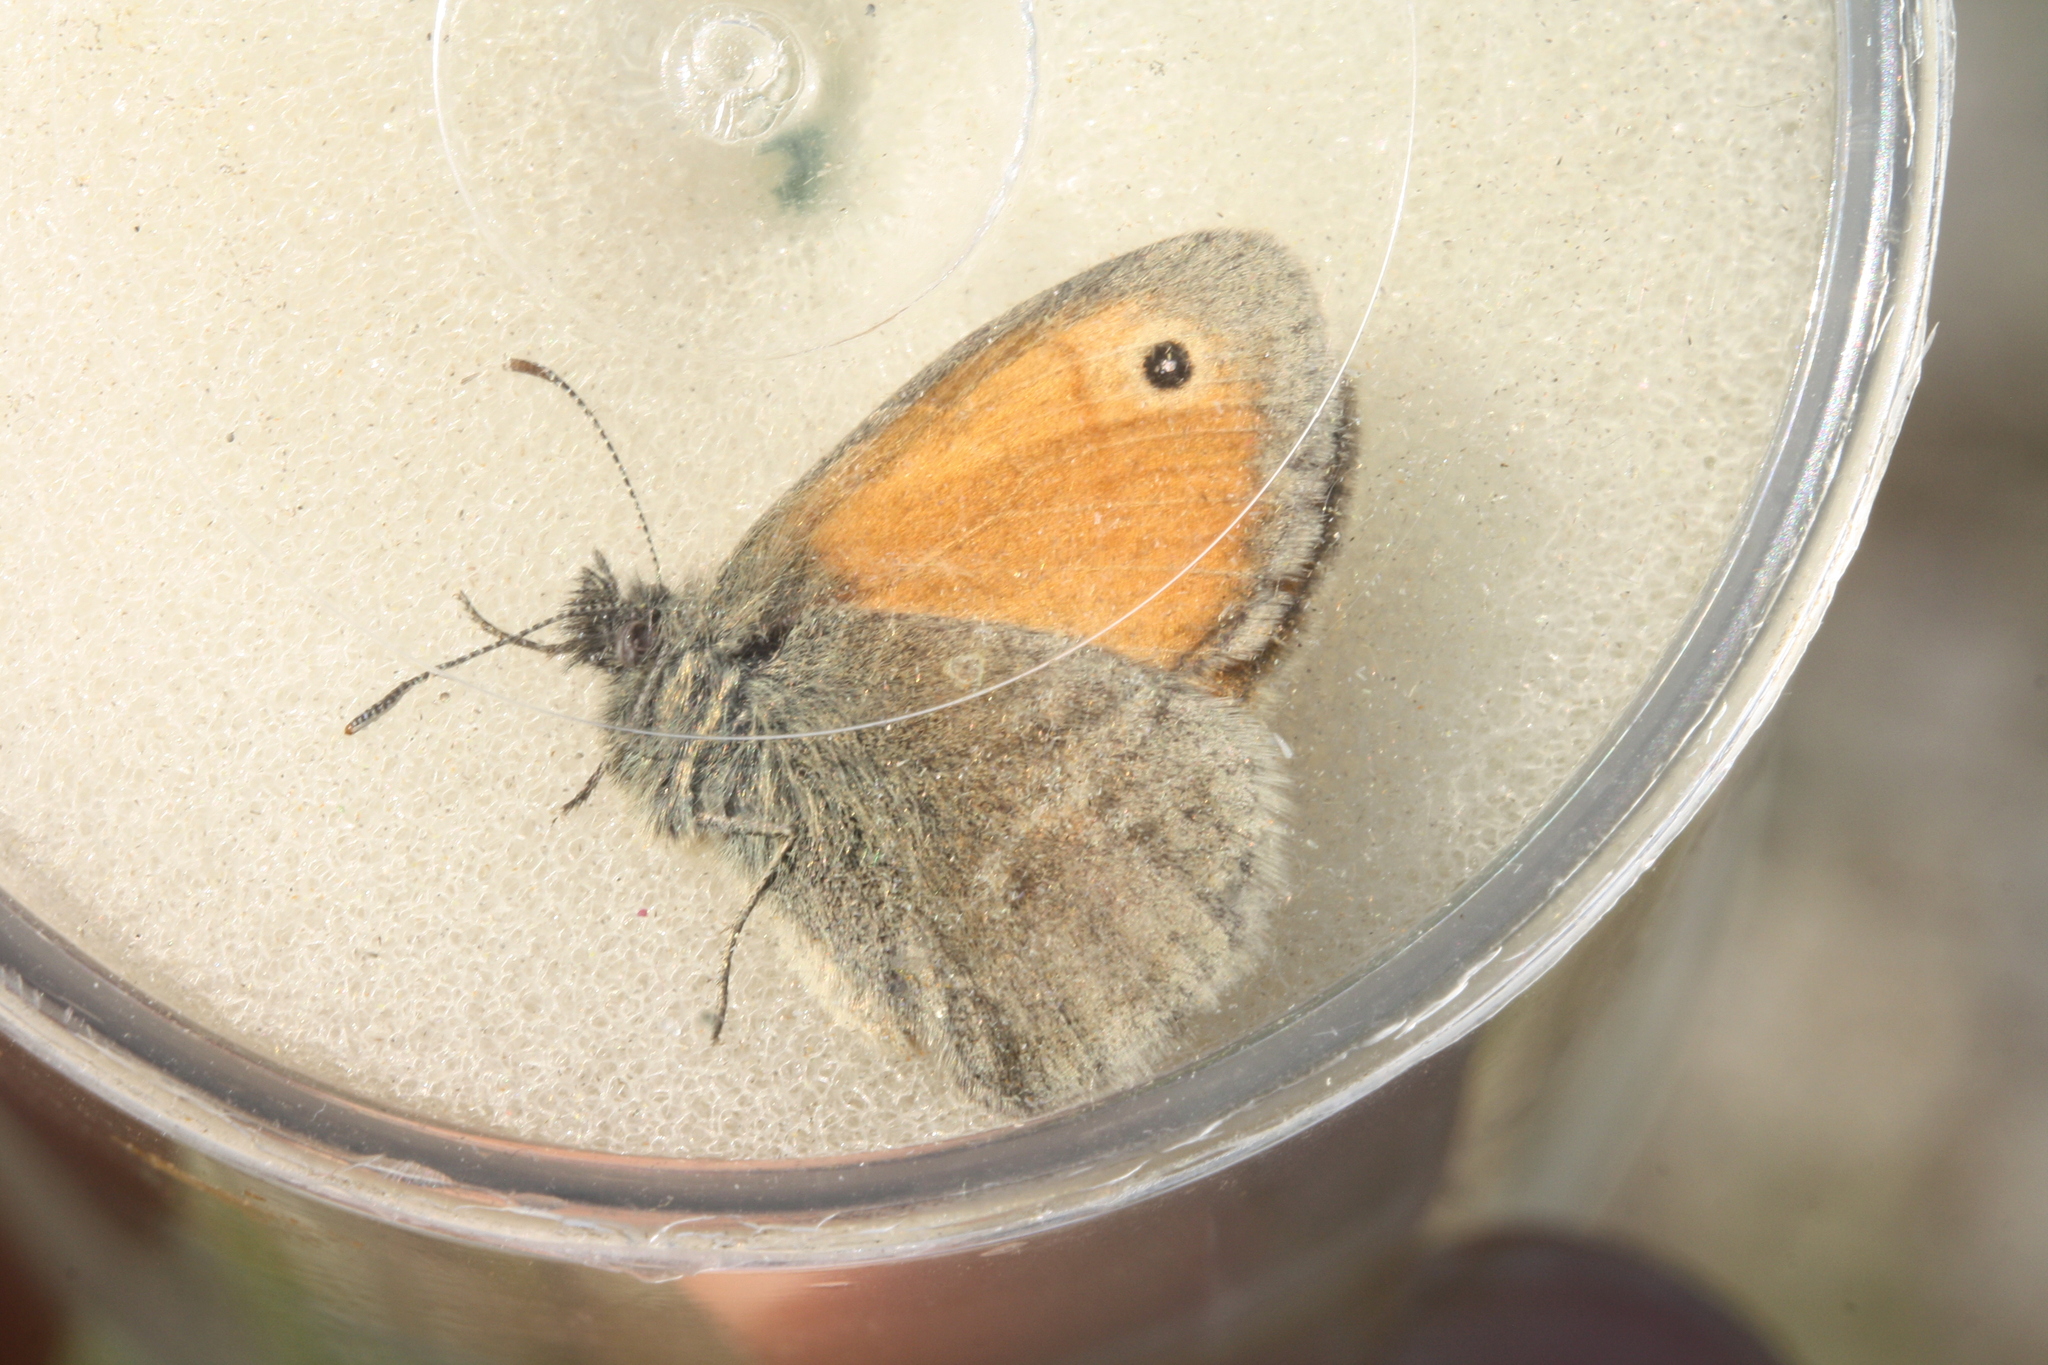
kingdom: Animalia
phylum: Arthropoda
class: Insecta
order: Lepidoptera
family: Nymphalidae
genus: Coenonympha
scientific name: Coenonympha pamphilus
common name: Small heath
